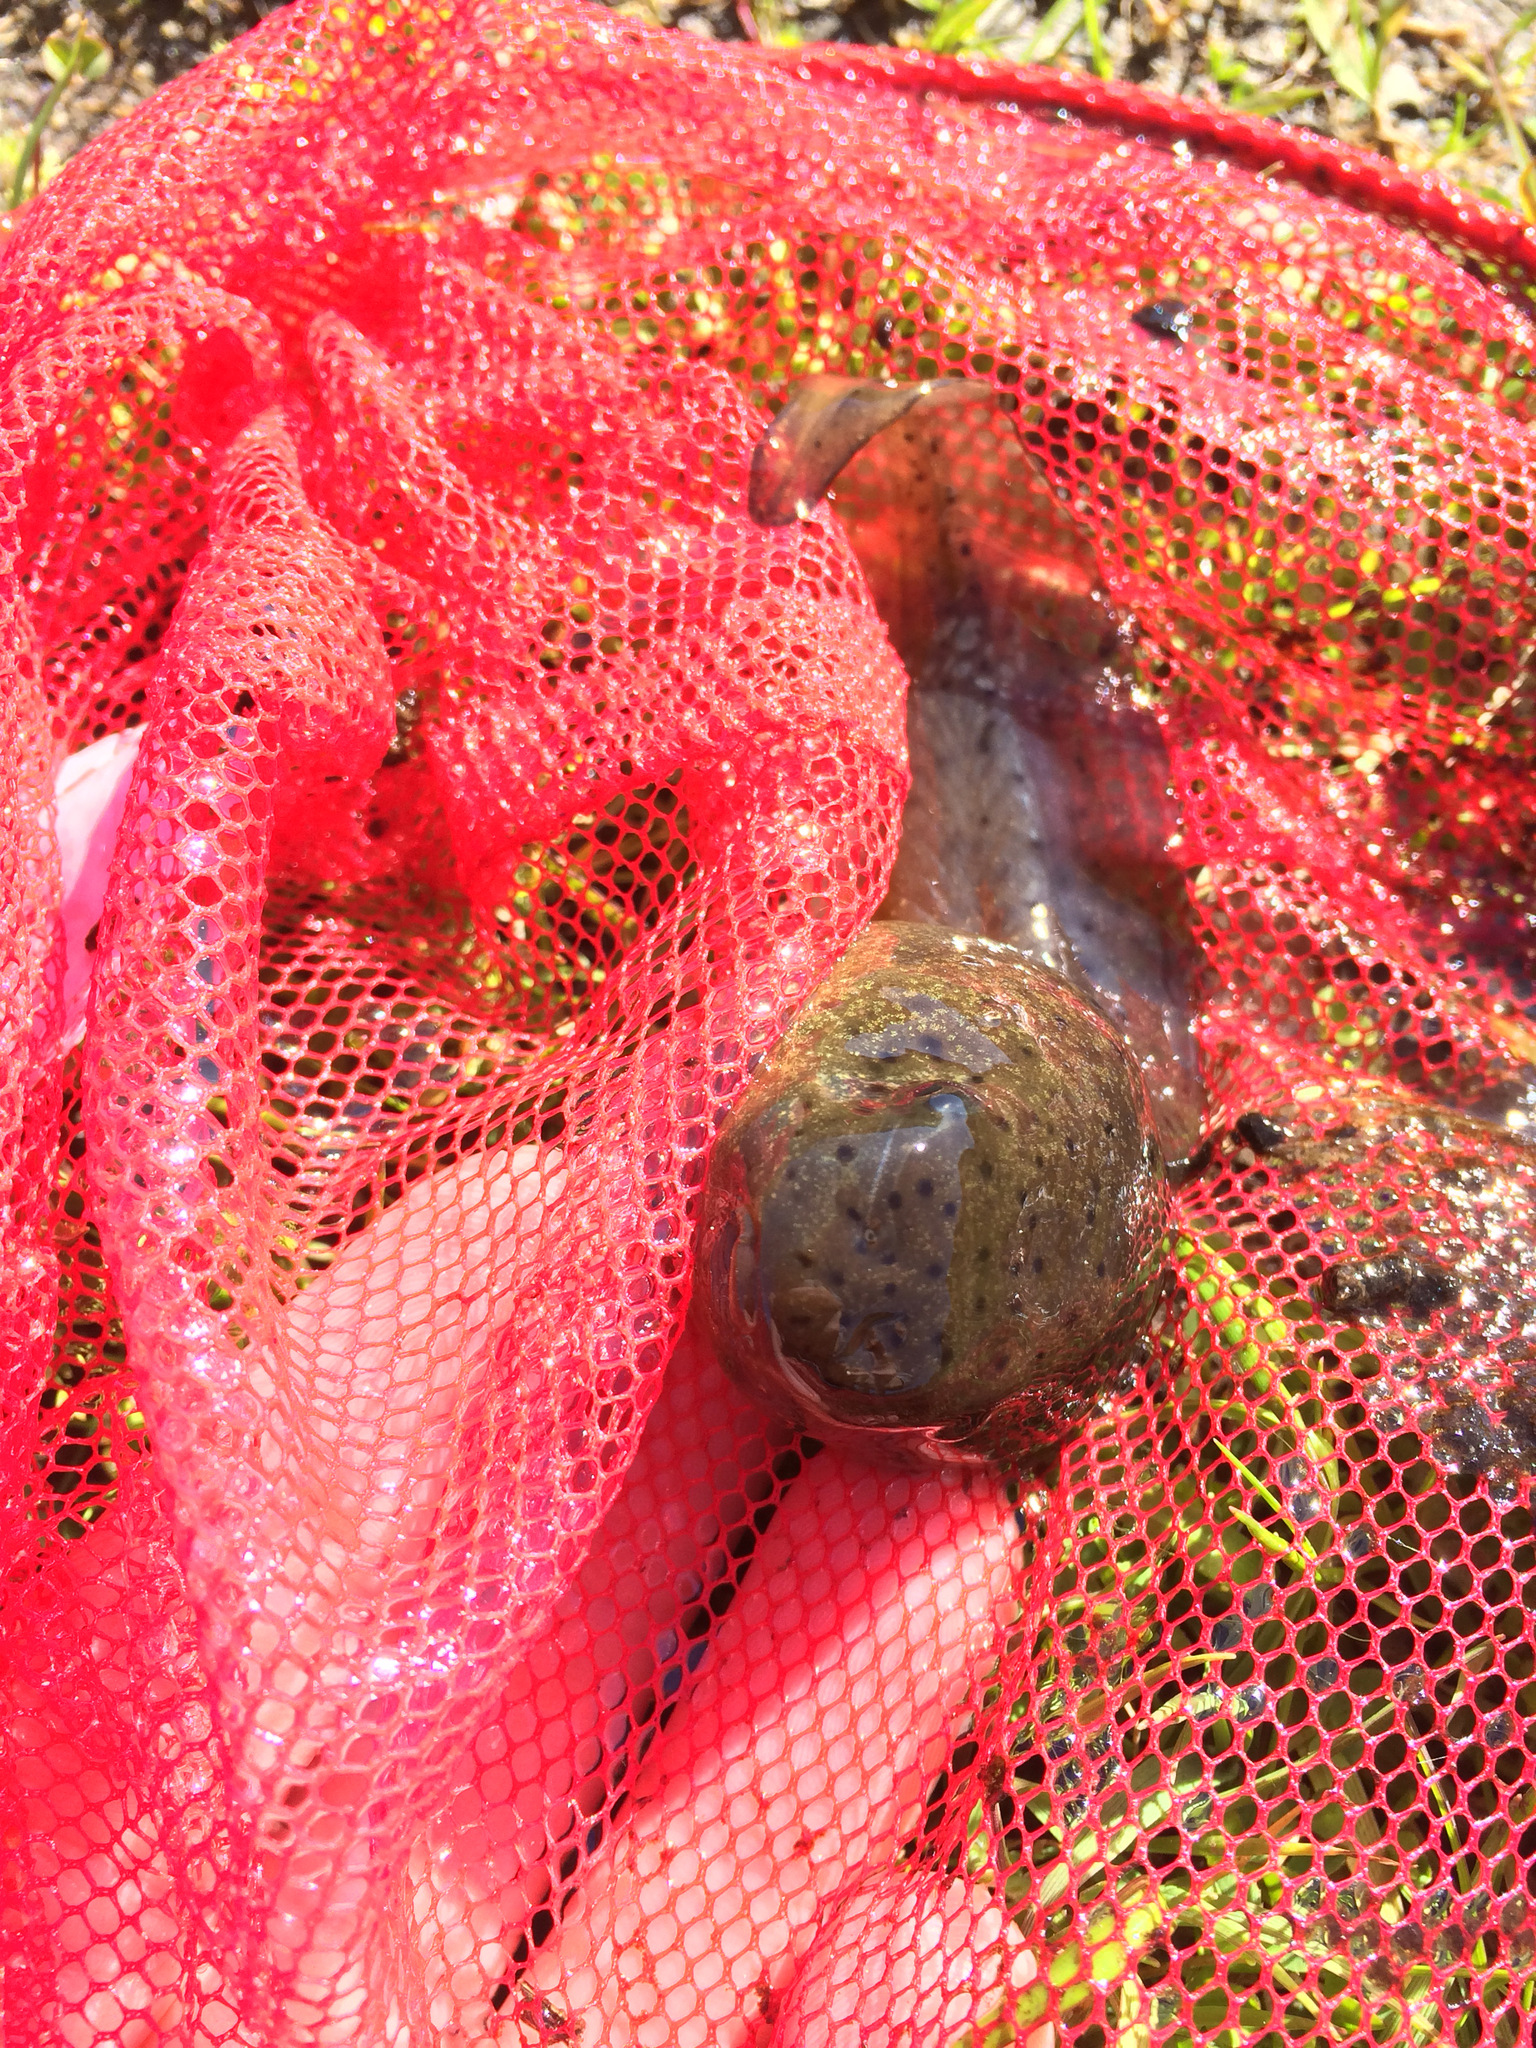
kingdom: Animalia
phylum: Chordata
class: Amphibia
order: Anura
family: Ranidae
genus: Lithobates
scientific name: Lithobates catesbeianus
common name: American bullfrog
